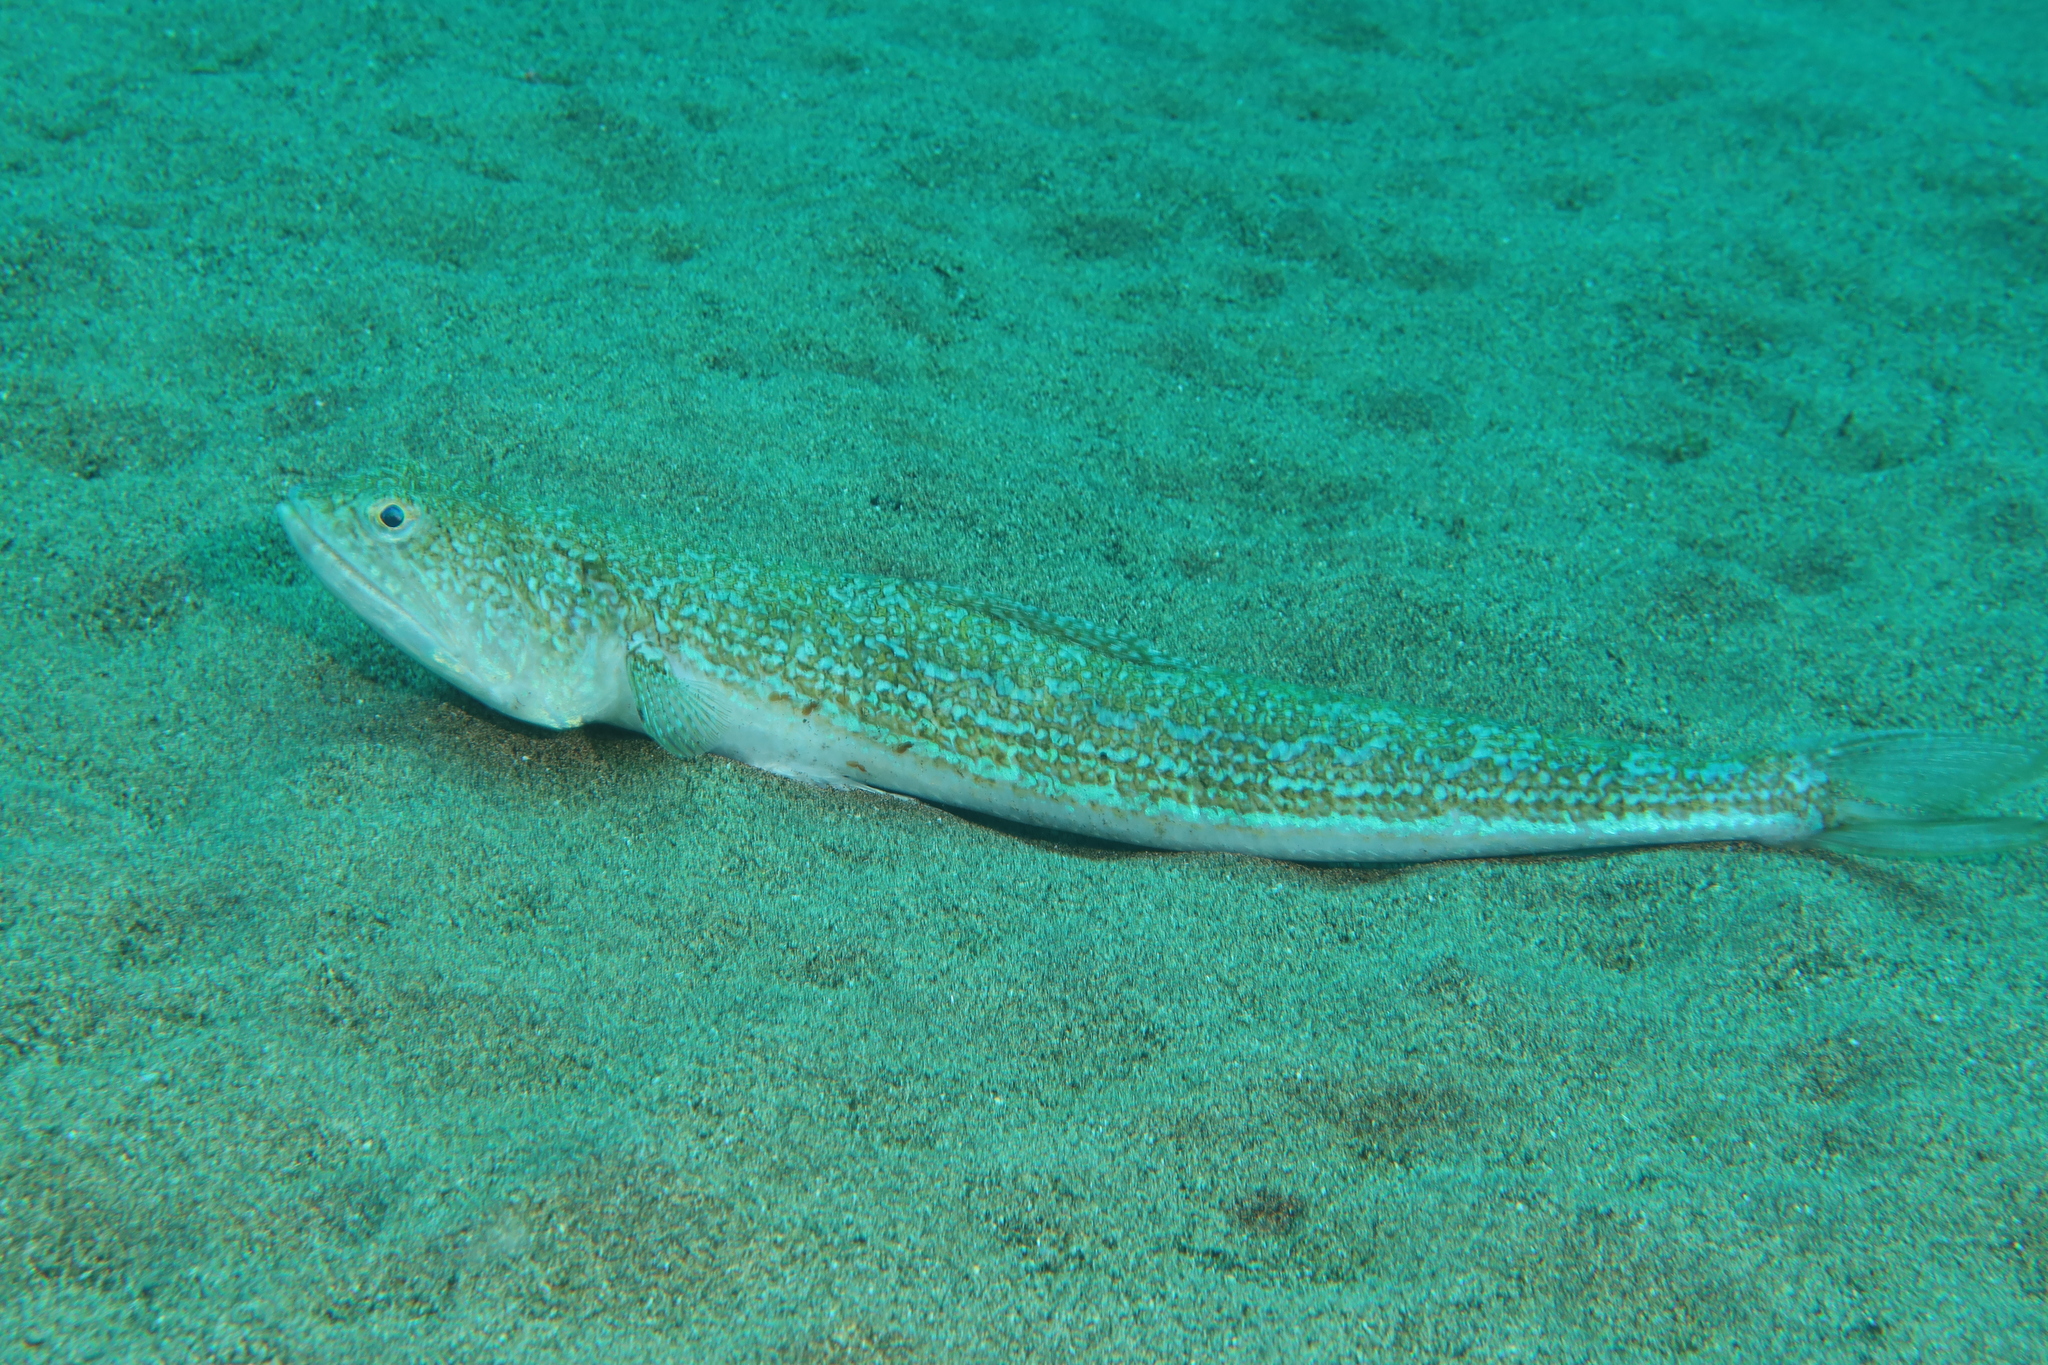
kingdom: Animalia
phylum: Chordata
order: Aulopiformes
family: Synodontidae
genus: Synodus
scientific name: Synodus saurus
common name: Atlantic lizardfish
